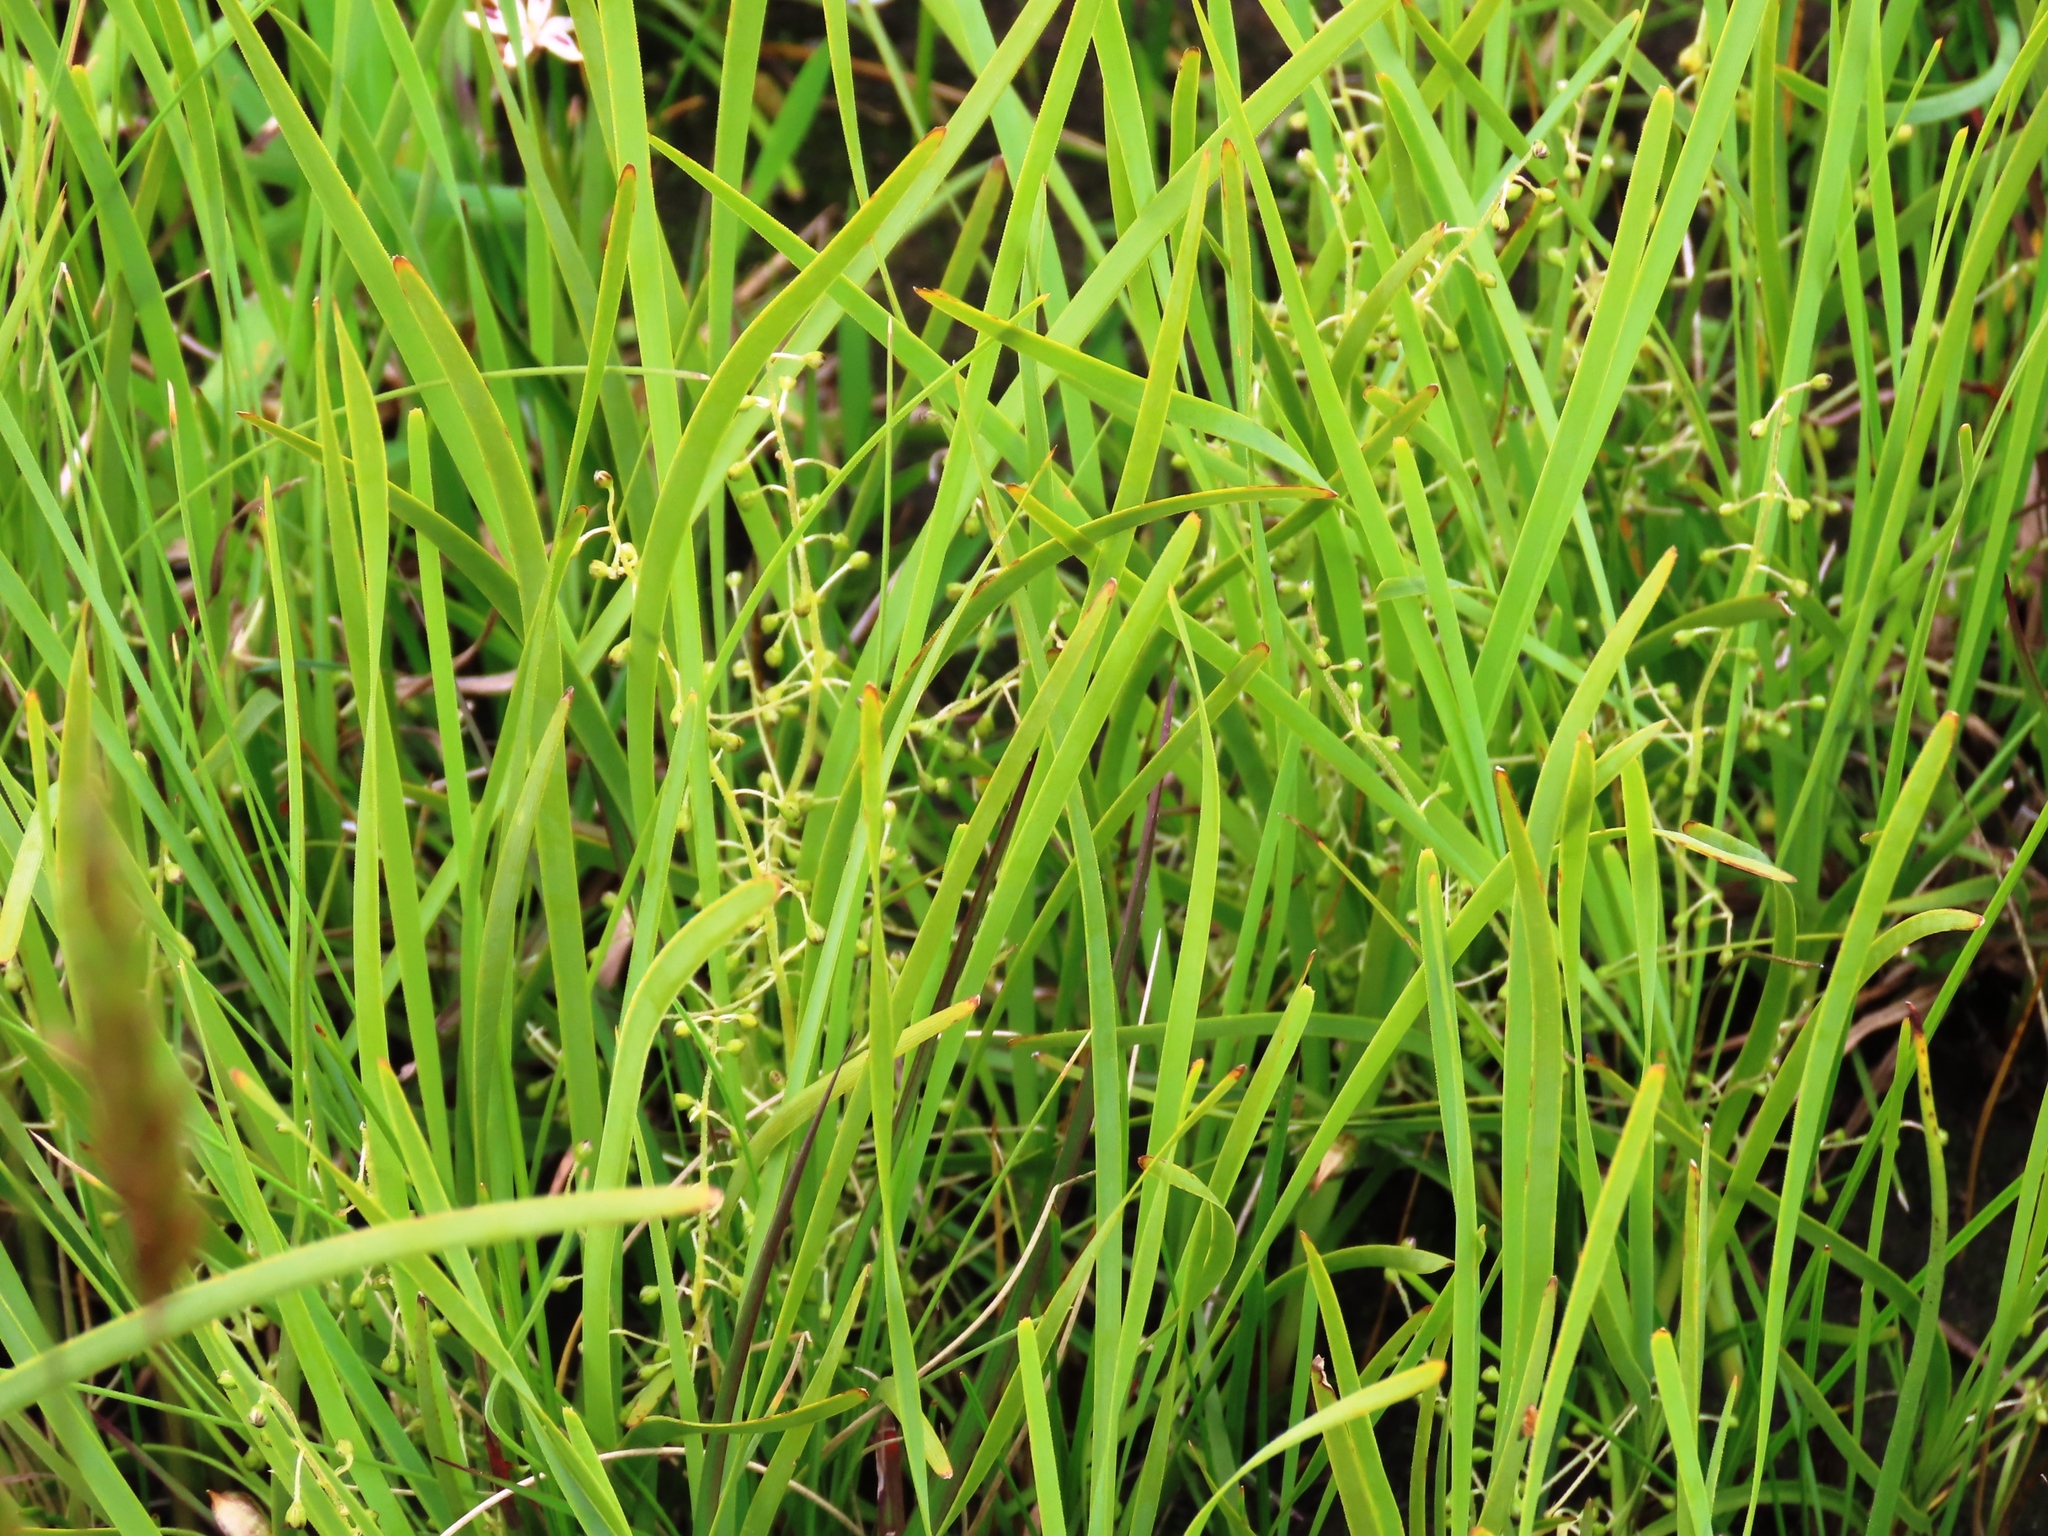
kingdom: Plantae
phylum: Tracheophyta
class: Liliopsida
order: Asparagales
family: Asparagaceae
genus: Lomandra
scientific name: Lomandra filiformis
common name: Wattle mat-rush
